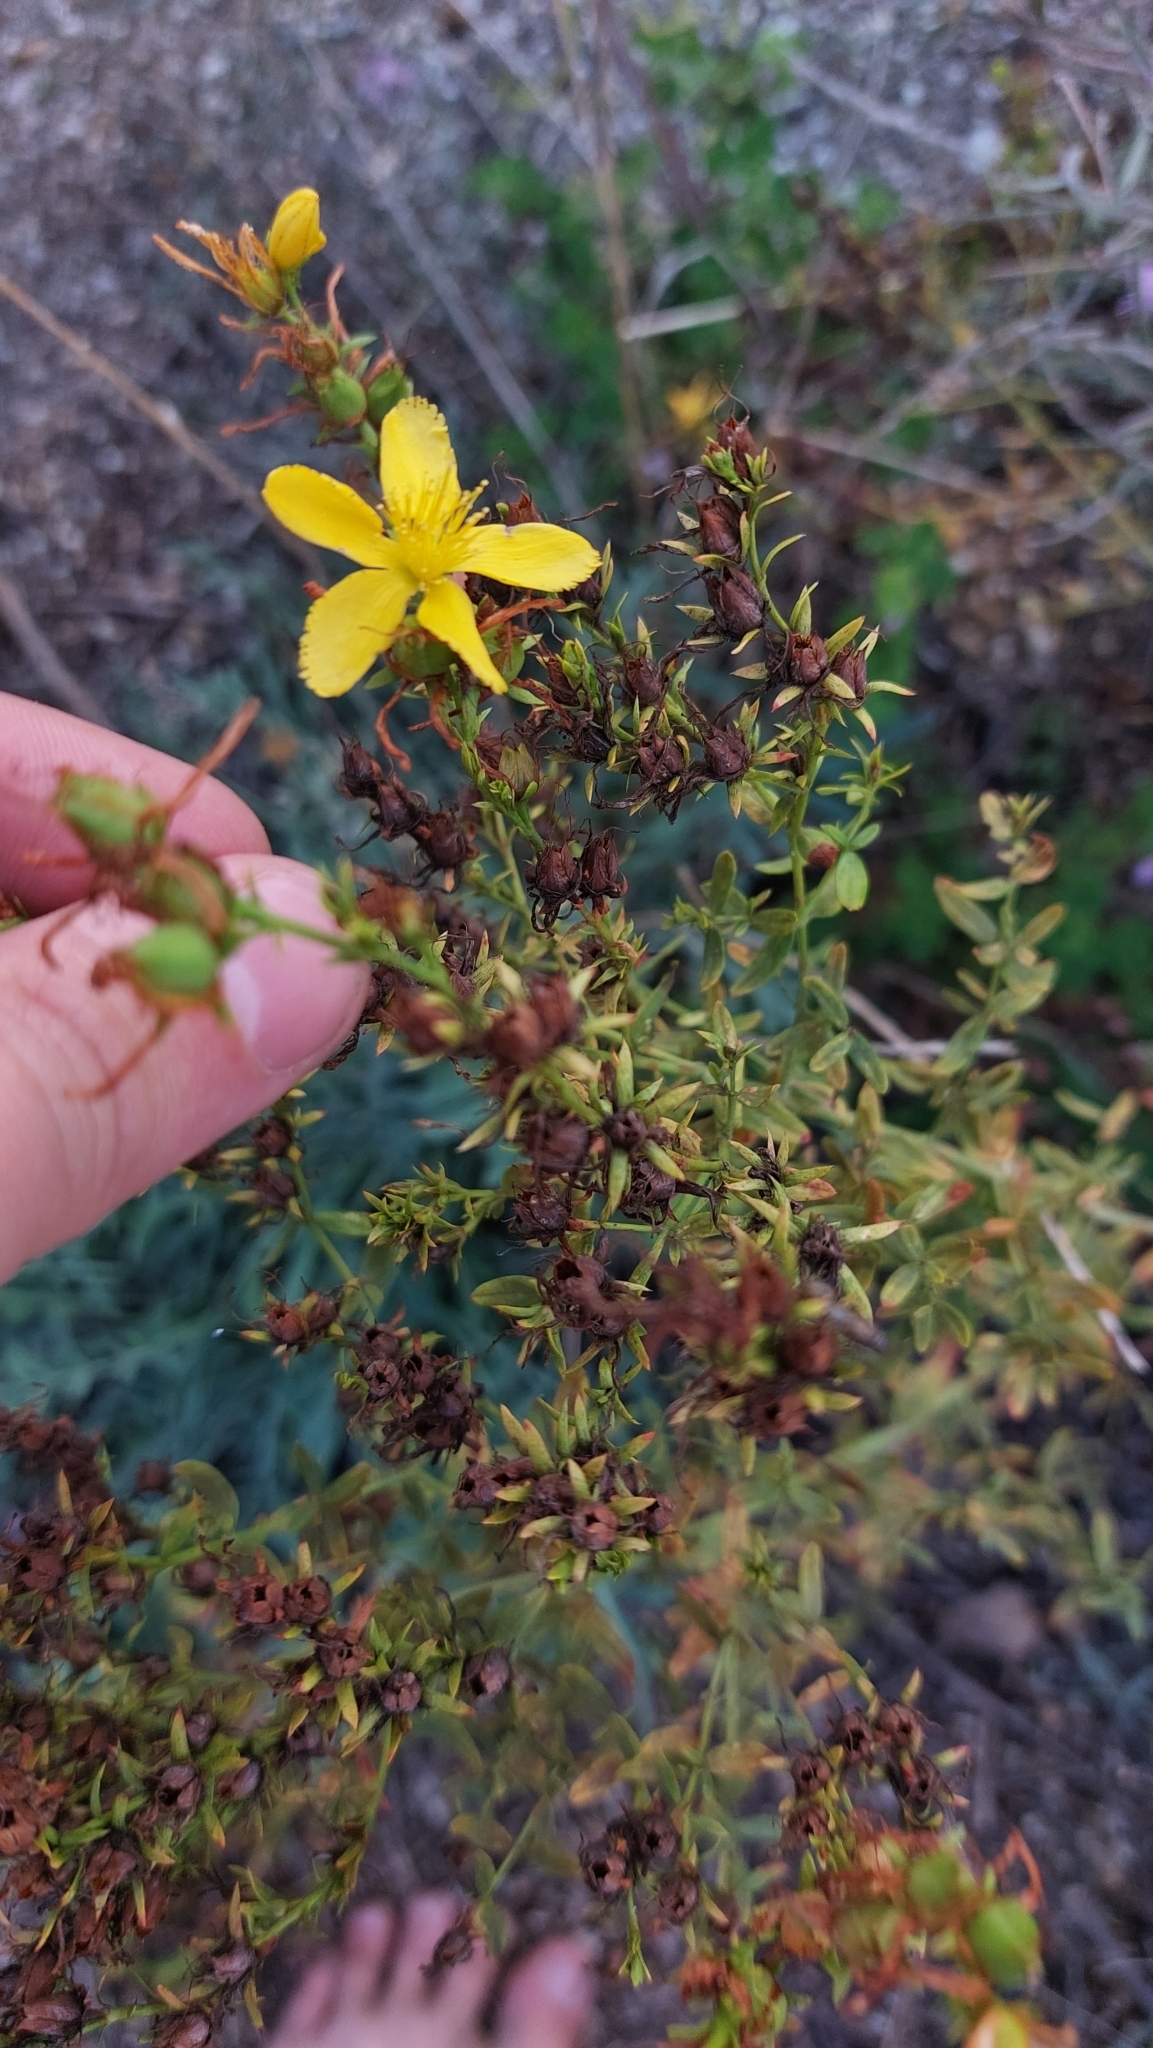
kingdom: Plantae
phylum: Tracheophyta
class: Magnoliopsida
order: Malpighiales
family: Hypericaceae
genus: Hypericum
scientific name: Hypericum perforatum
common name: Common st. johnswort
